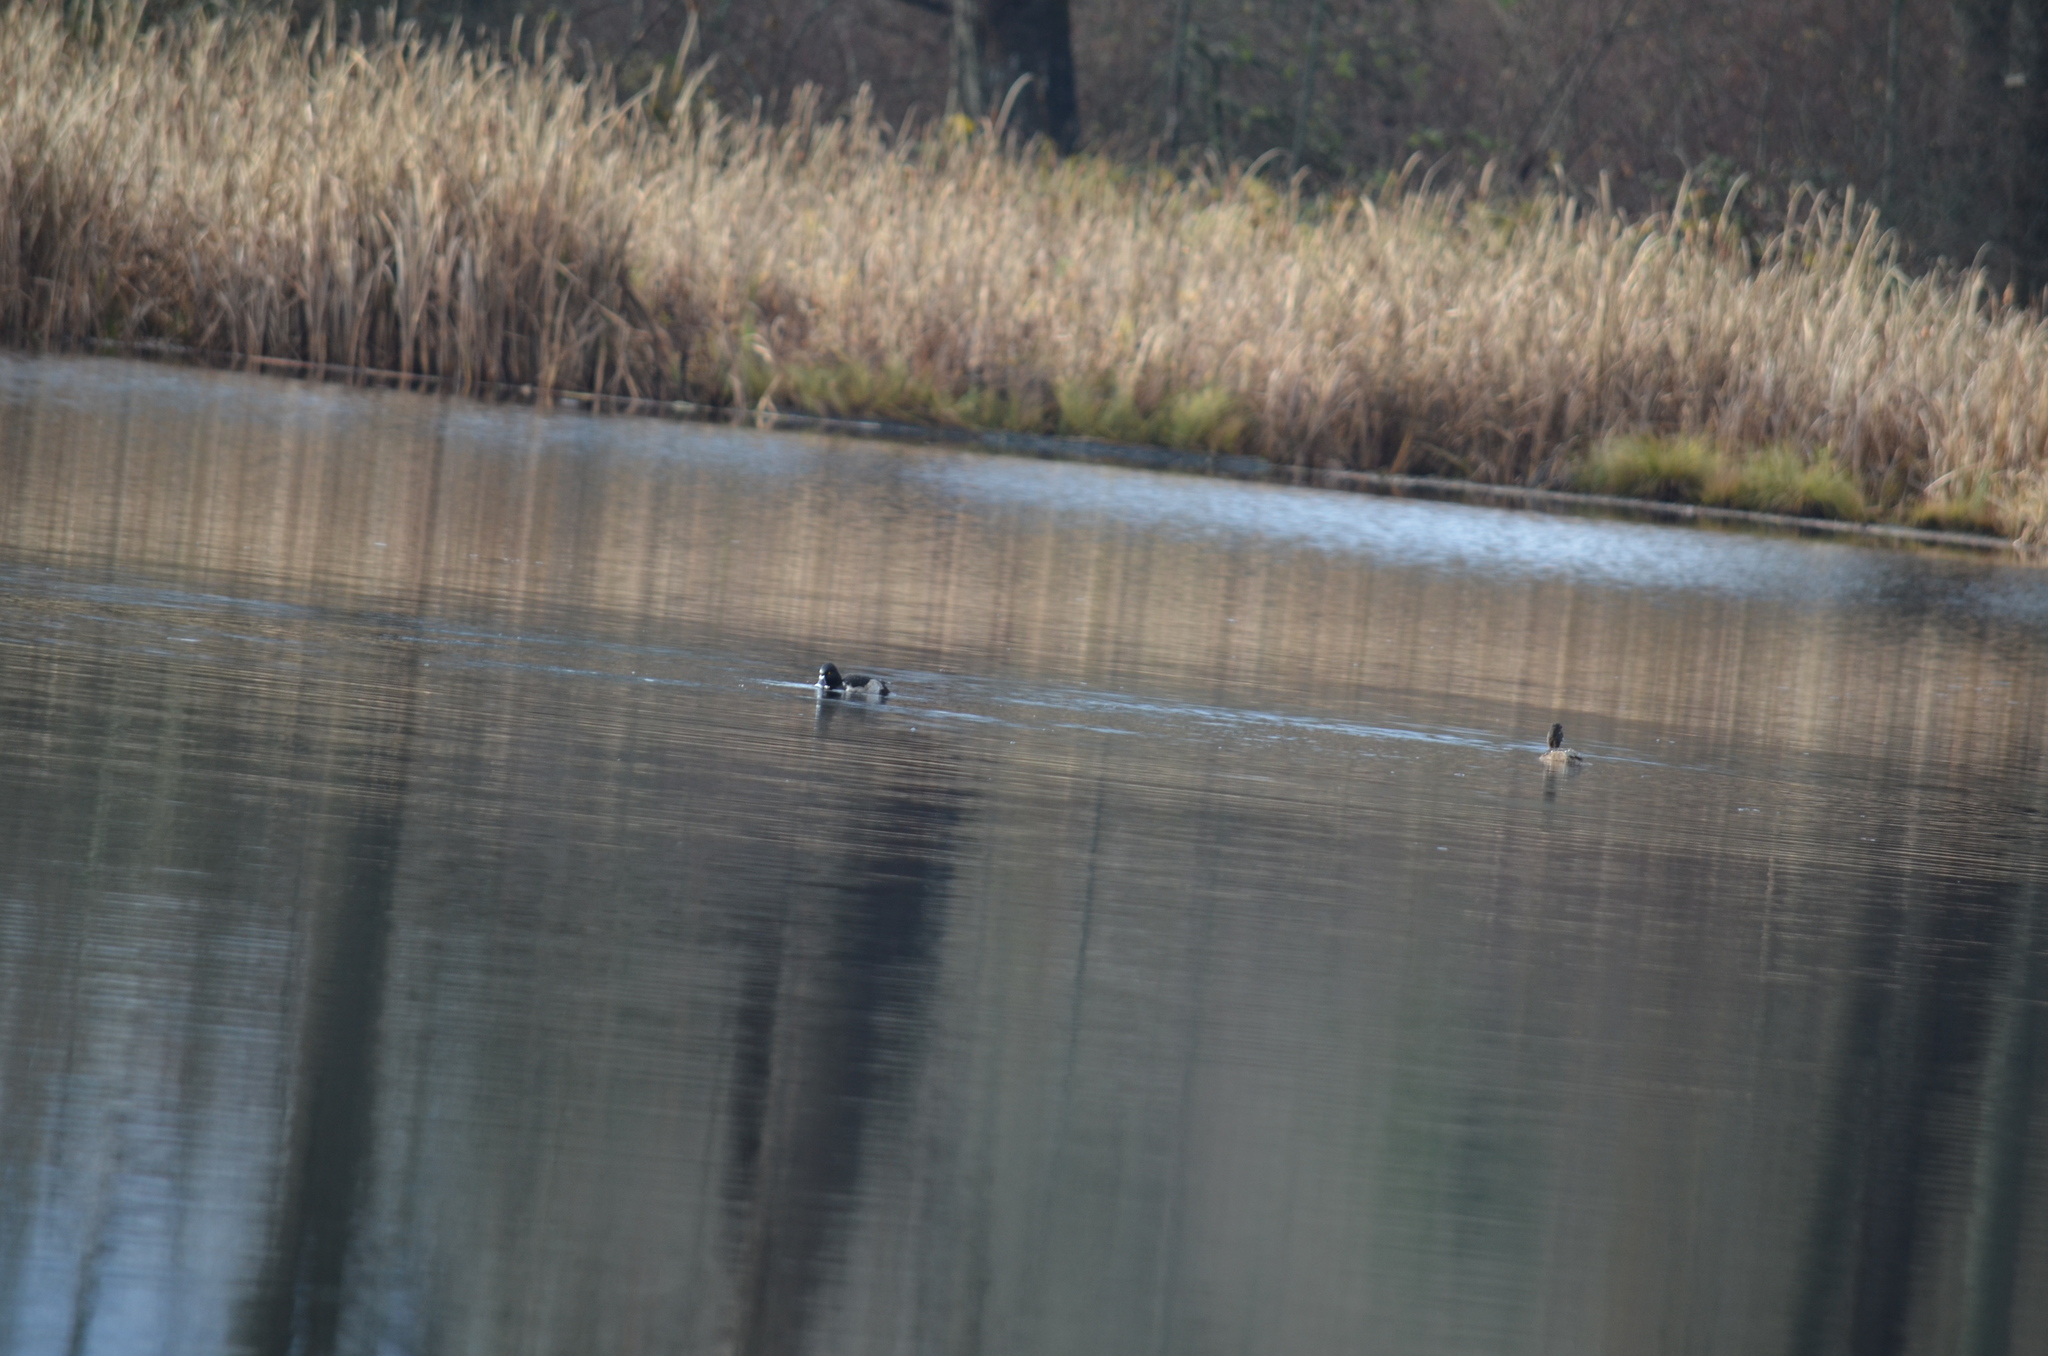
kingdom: Animalia
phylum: Chordata
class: Aves
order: Anseriformes
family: Anatidae
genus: Aythya
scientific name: Aythya collaris
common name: Ring-necked duck
